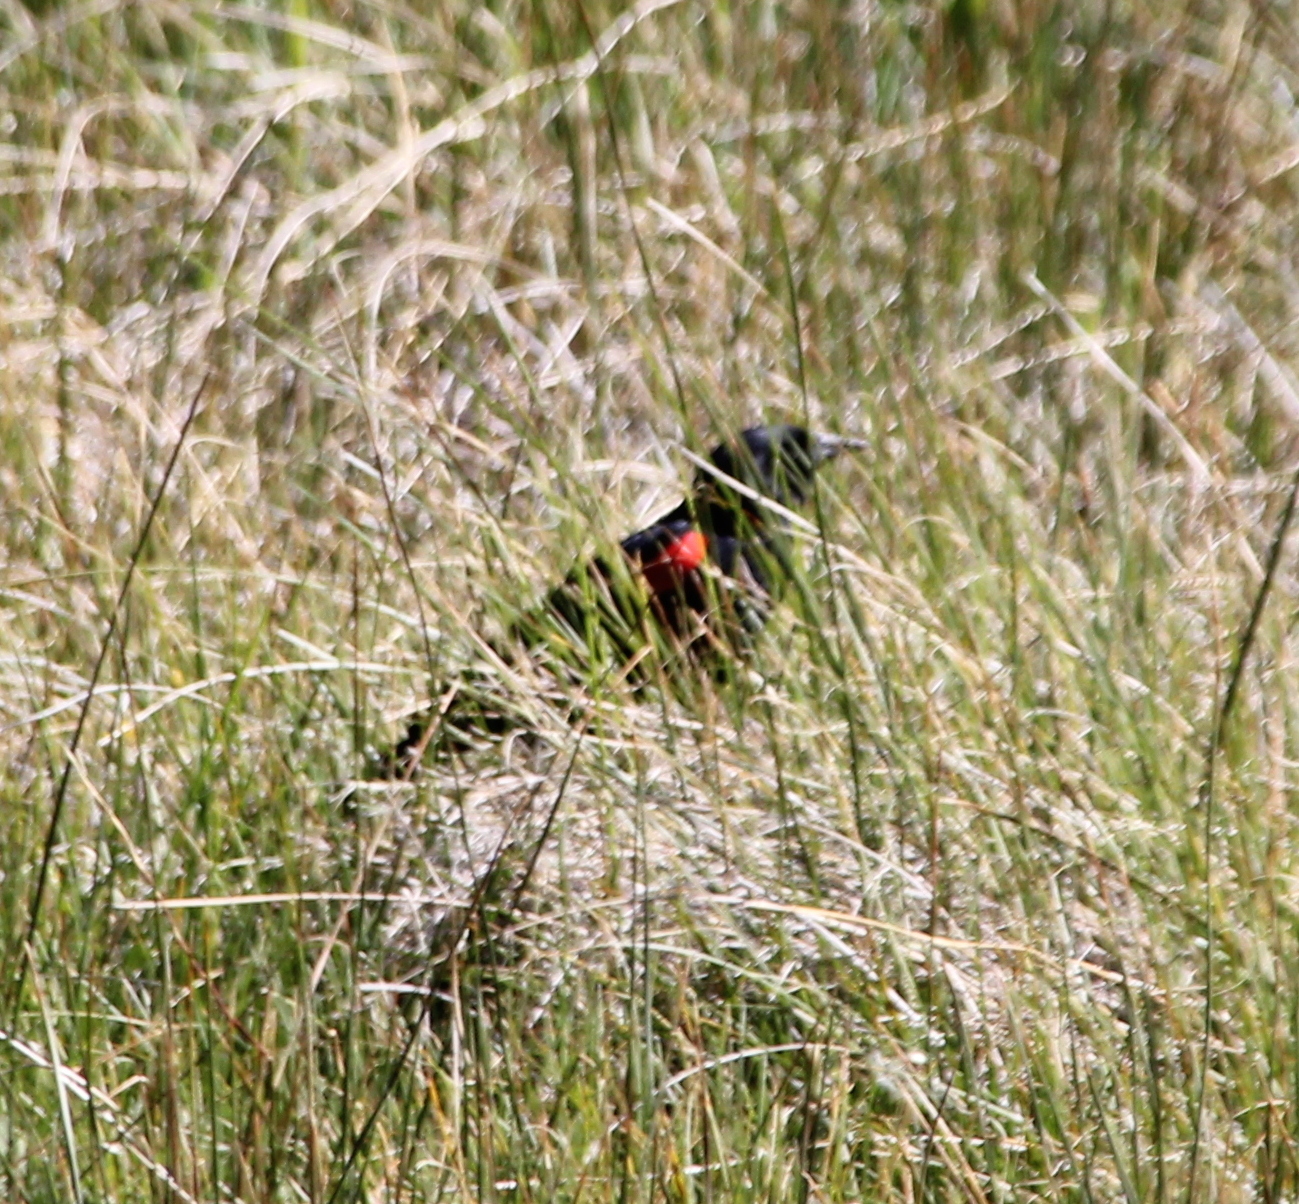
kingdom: Animalia
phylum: Chordata
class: Aves
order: Passeriformes
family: Icteridae
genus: Agelaius
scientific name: Agelaius phoeniceus
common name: Red-winged blackbird
